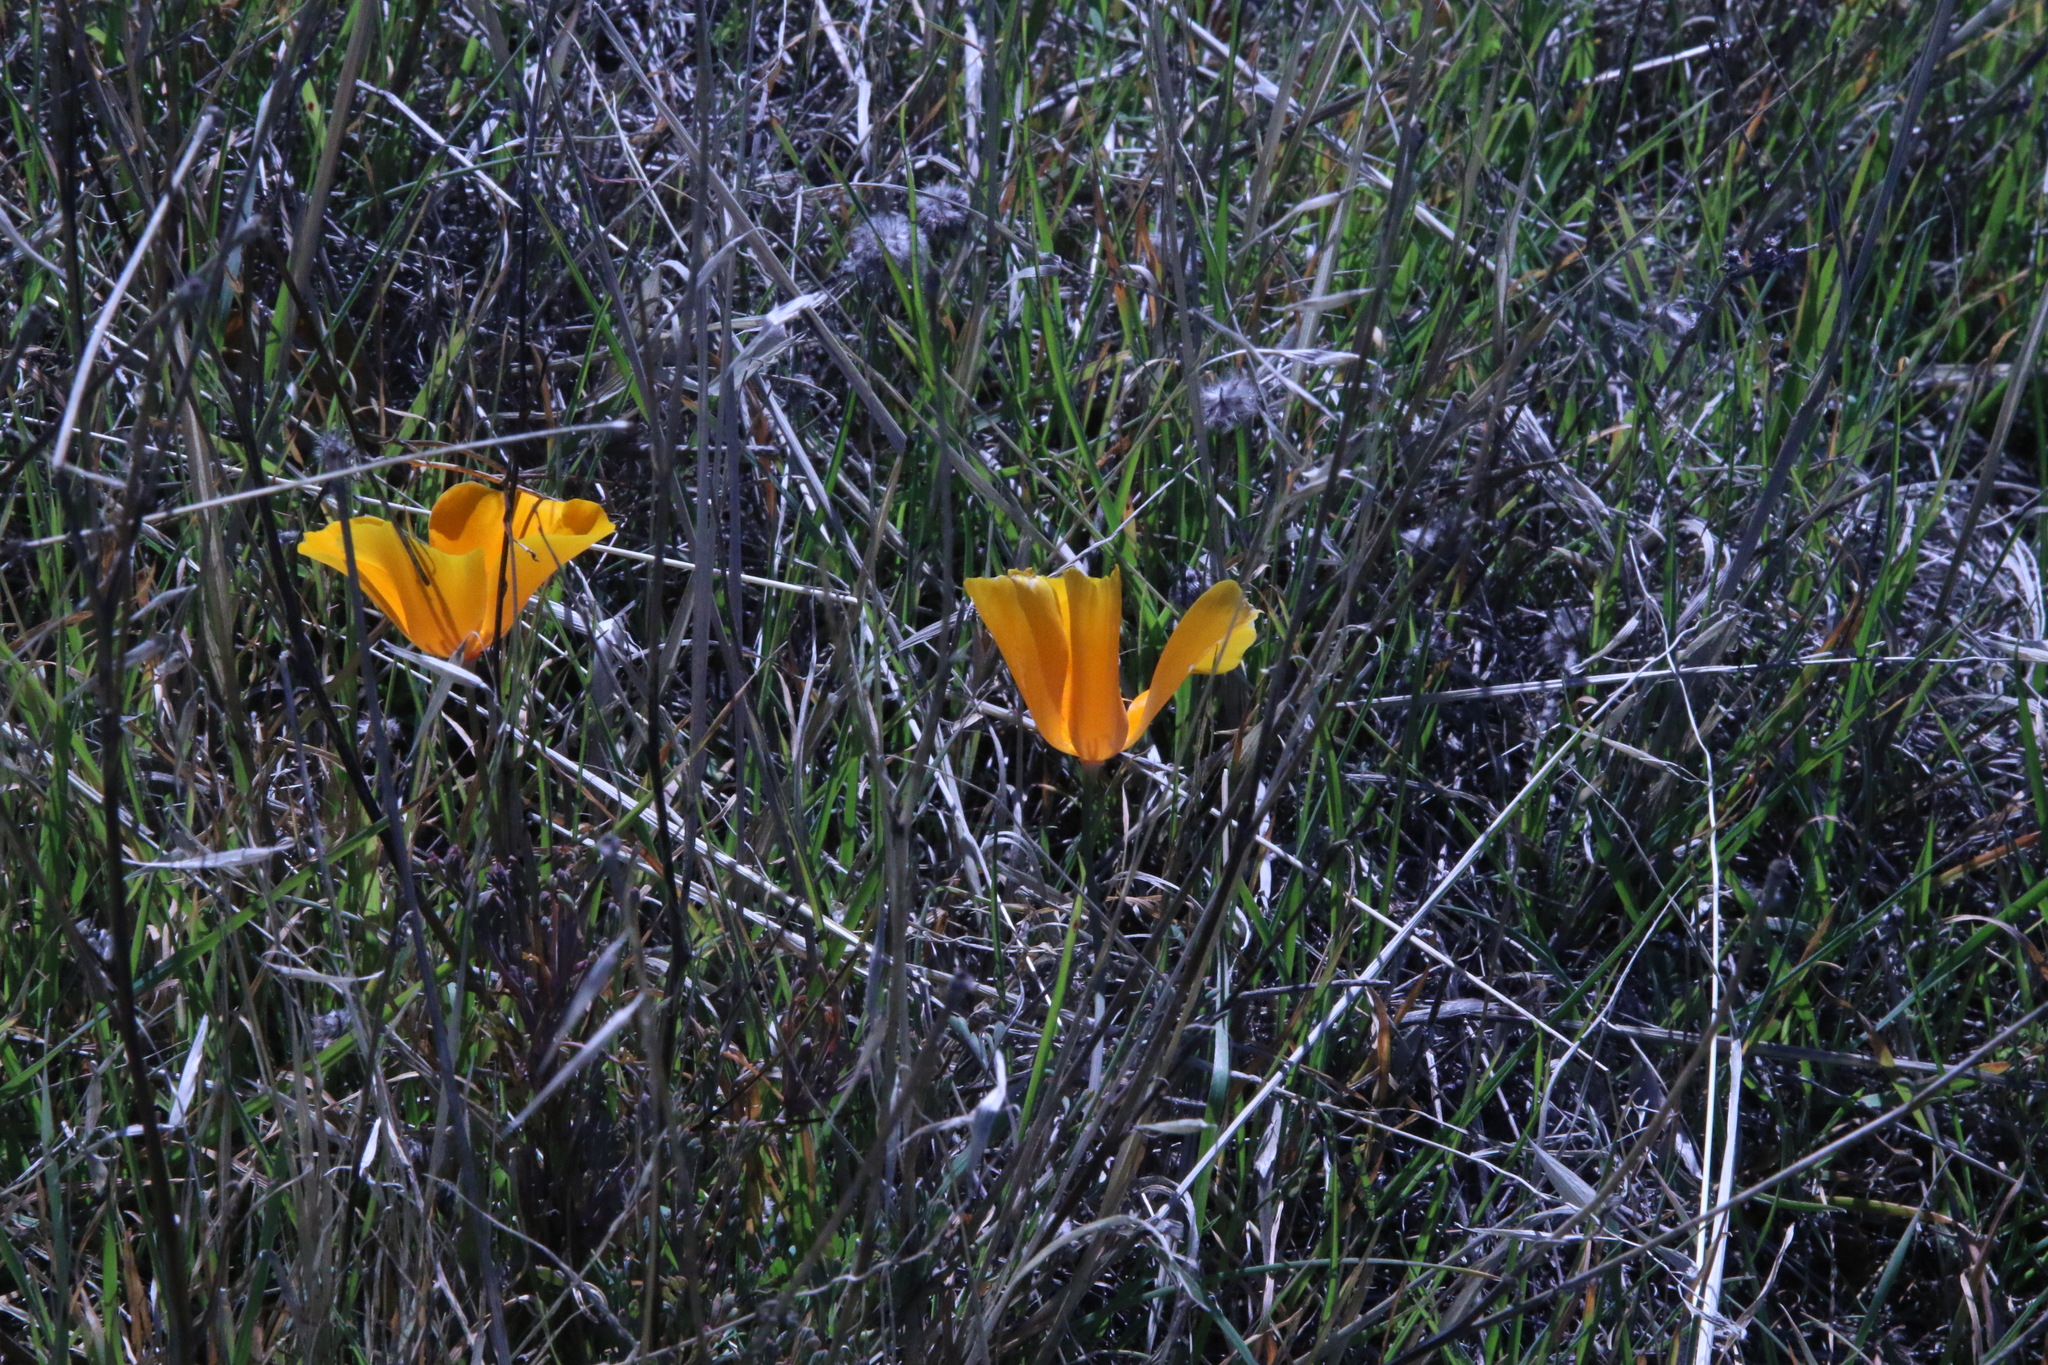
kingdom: Plantae
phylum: Tracheophyta
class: Magnoliopsida
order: Ranunculales
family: Papaveraceae
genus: Eschscholzia
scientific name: Eschscholzia californica
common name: California poppy
